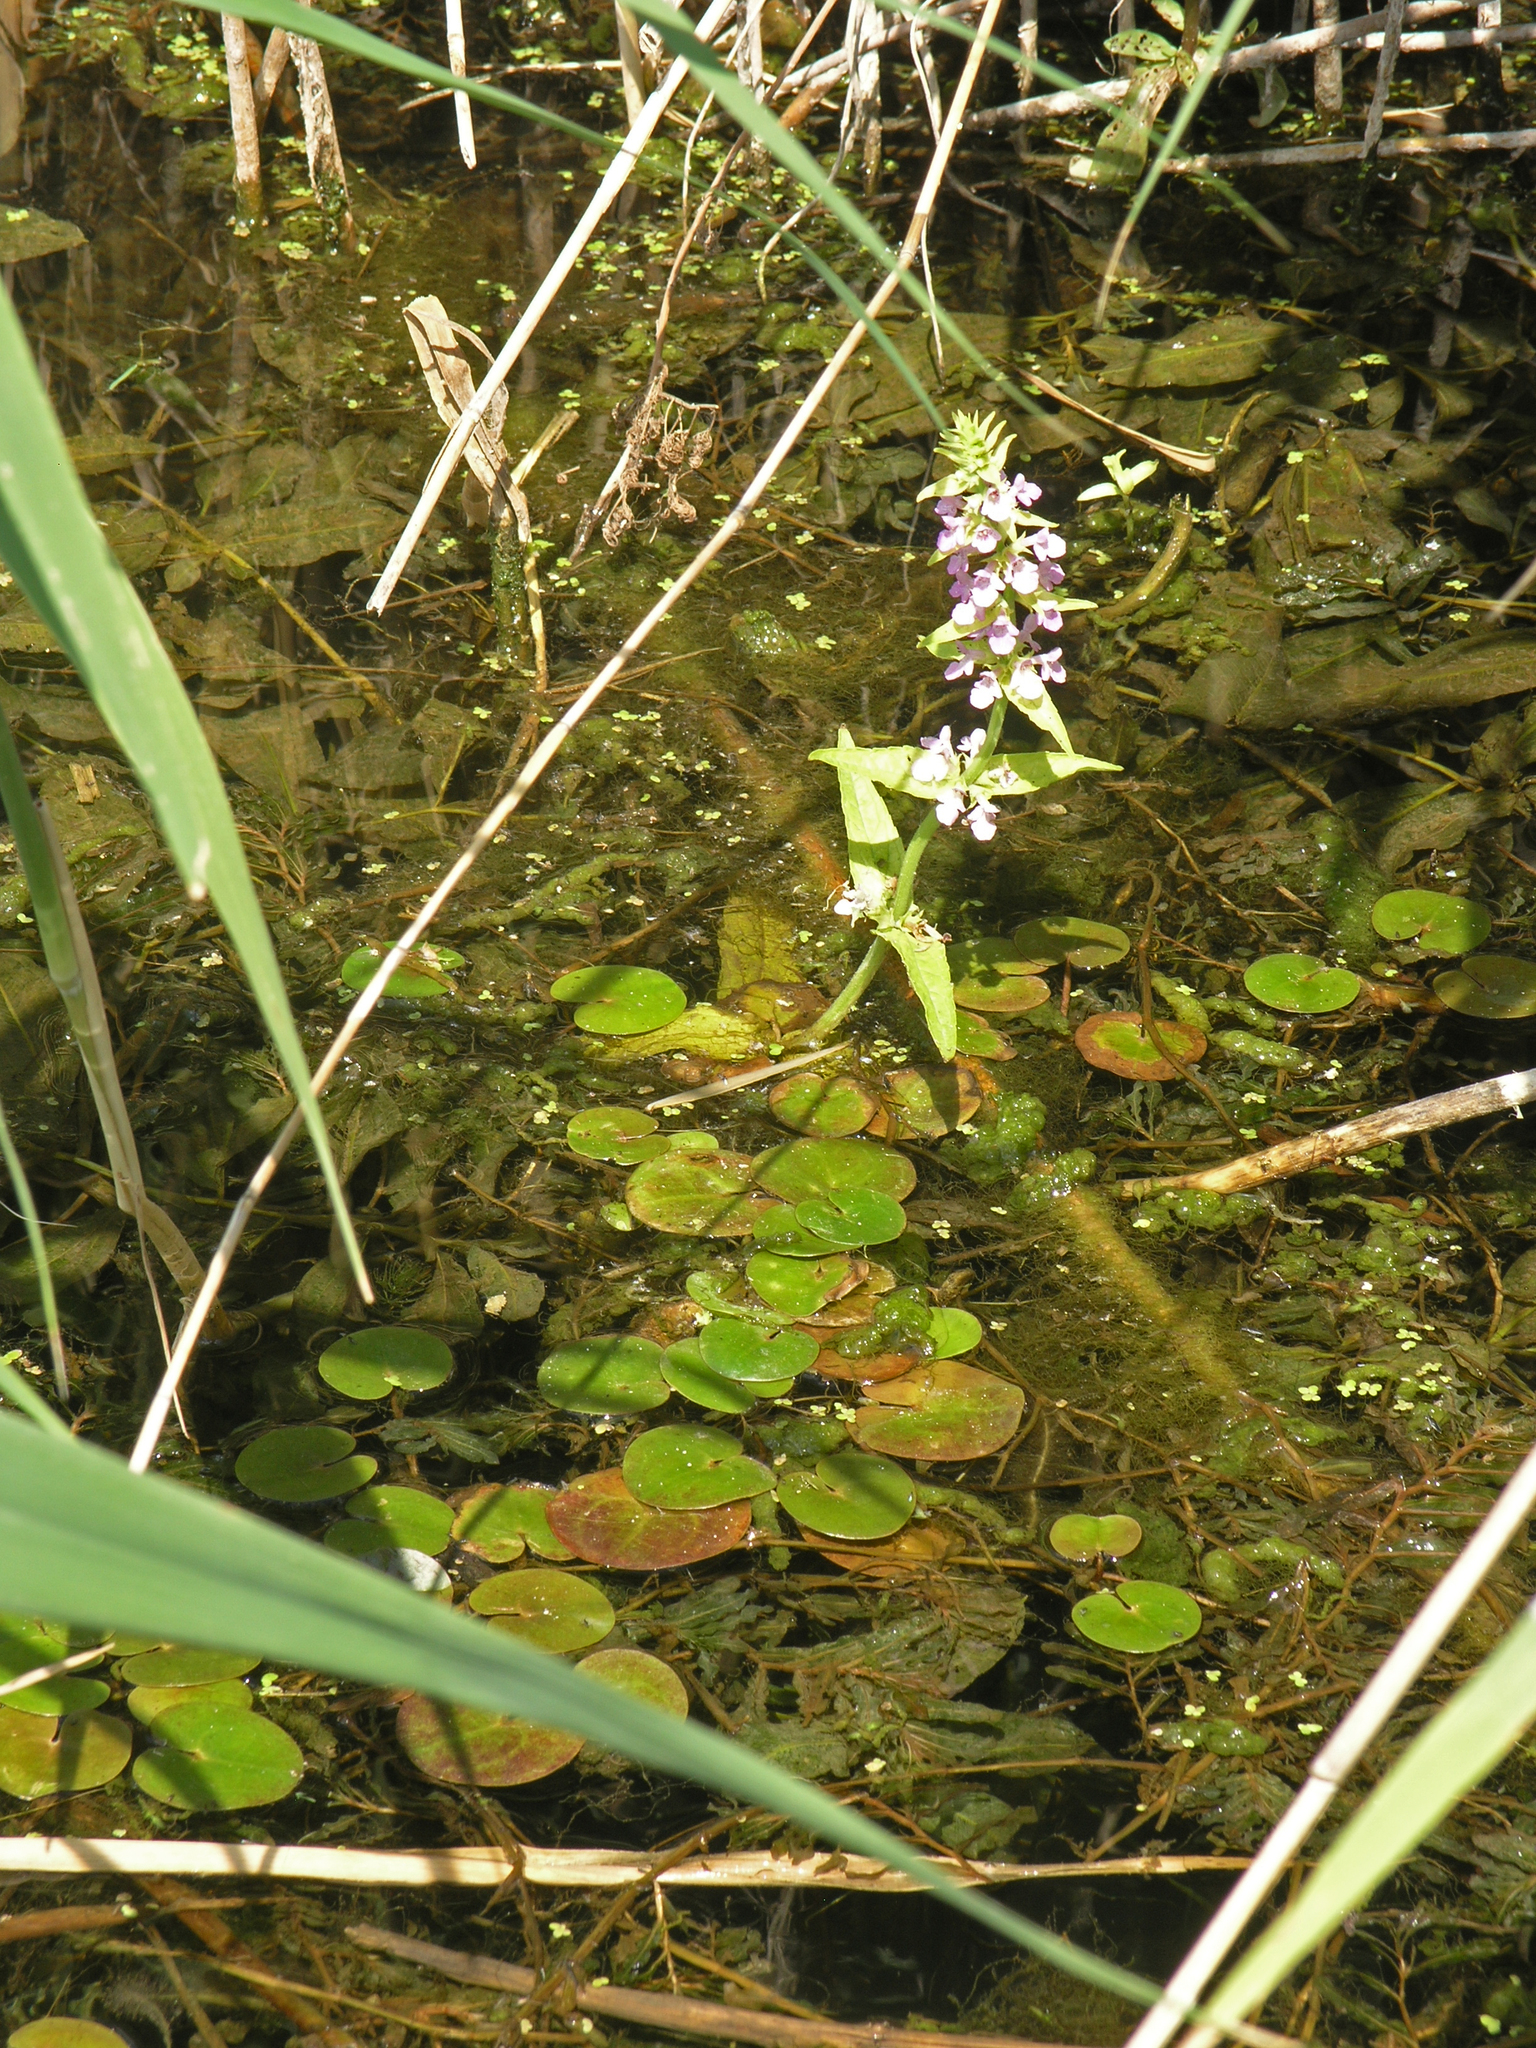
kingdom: Plantae
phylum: Tracheophyta
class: Magnoliopsida
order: Lamiales
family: Lamiaceae
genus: Stachys
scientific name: Stachys palustris
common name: Marsh woundwort
